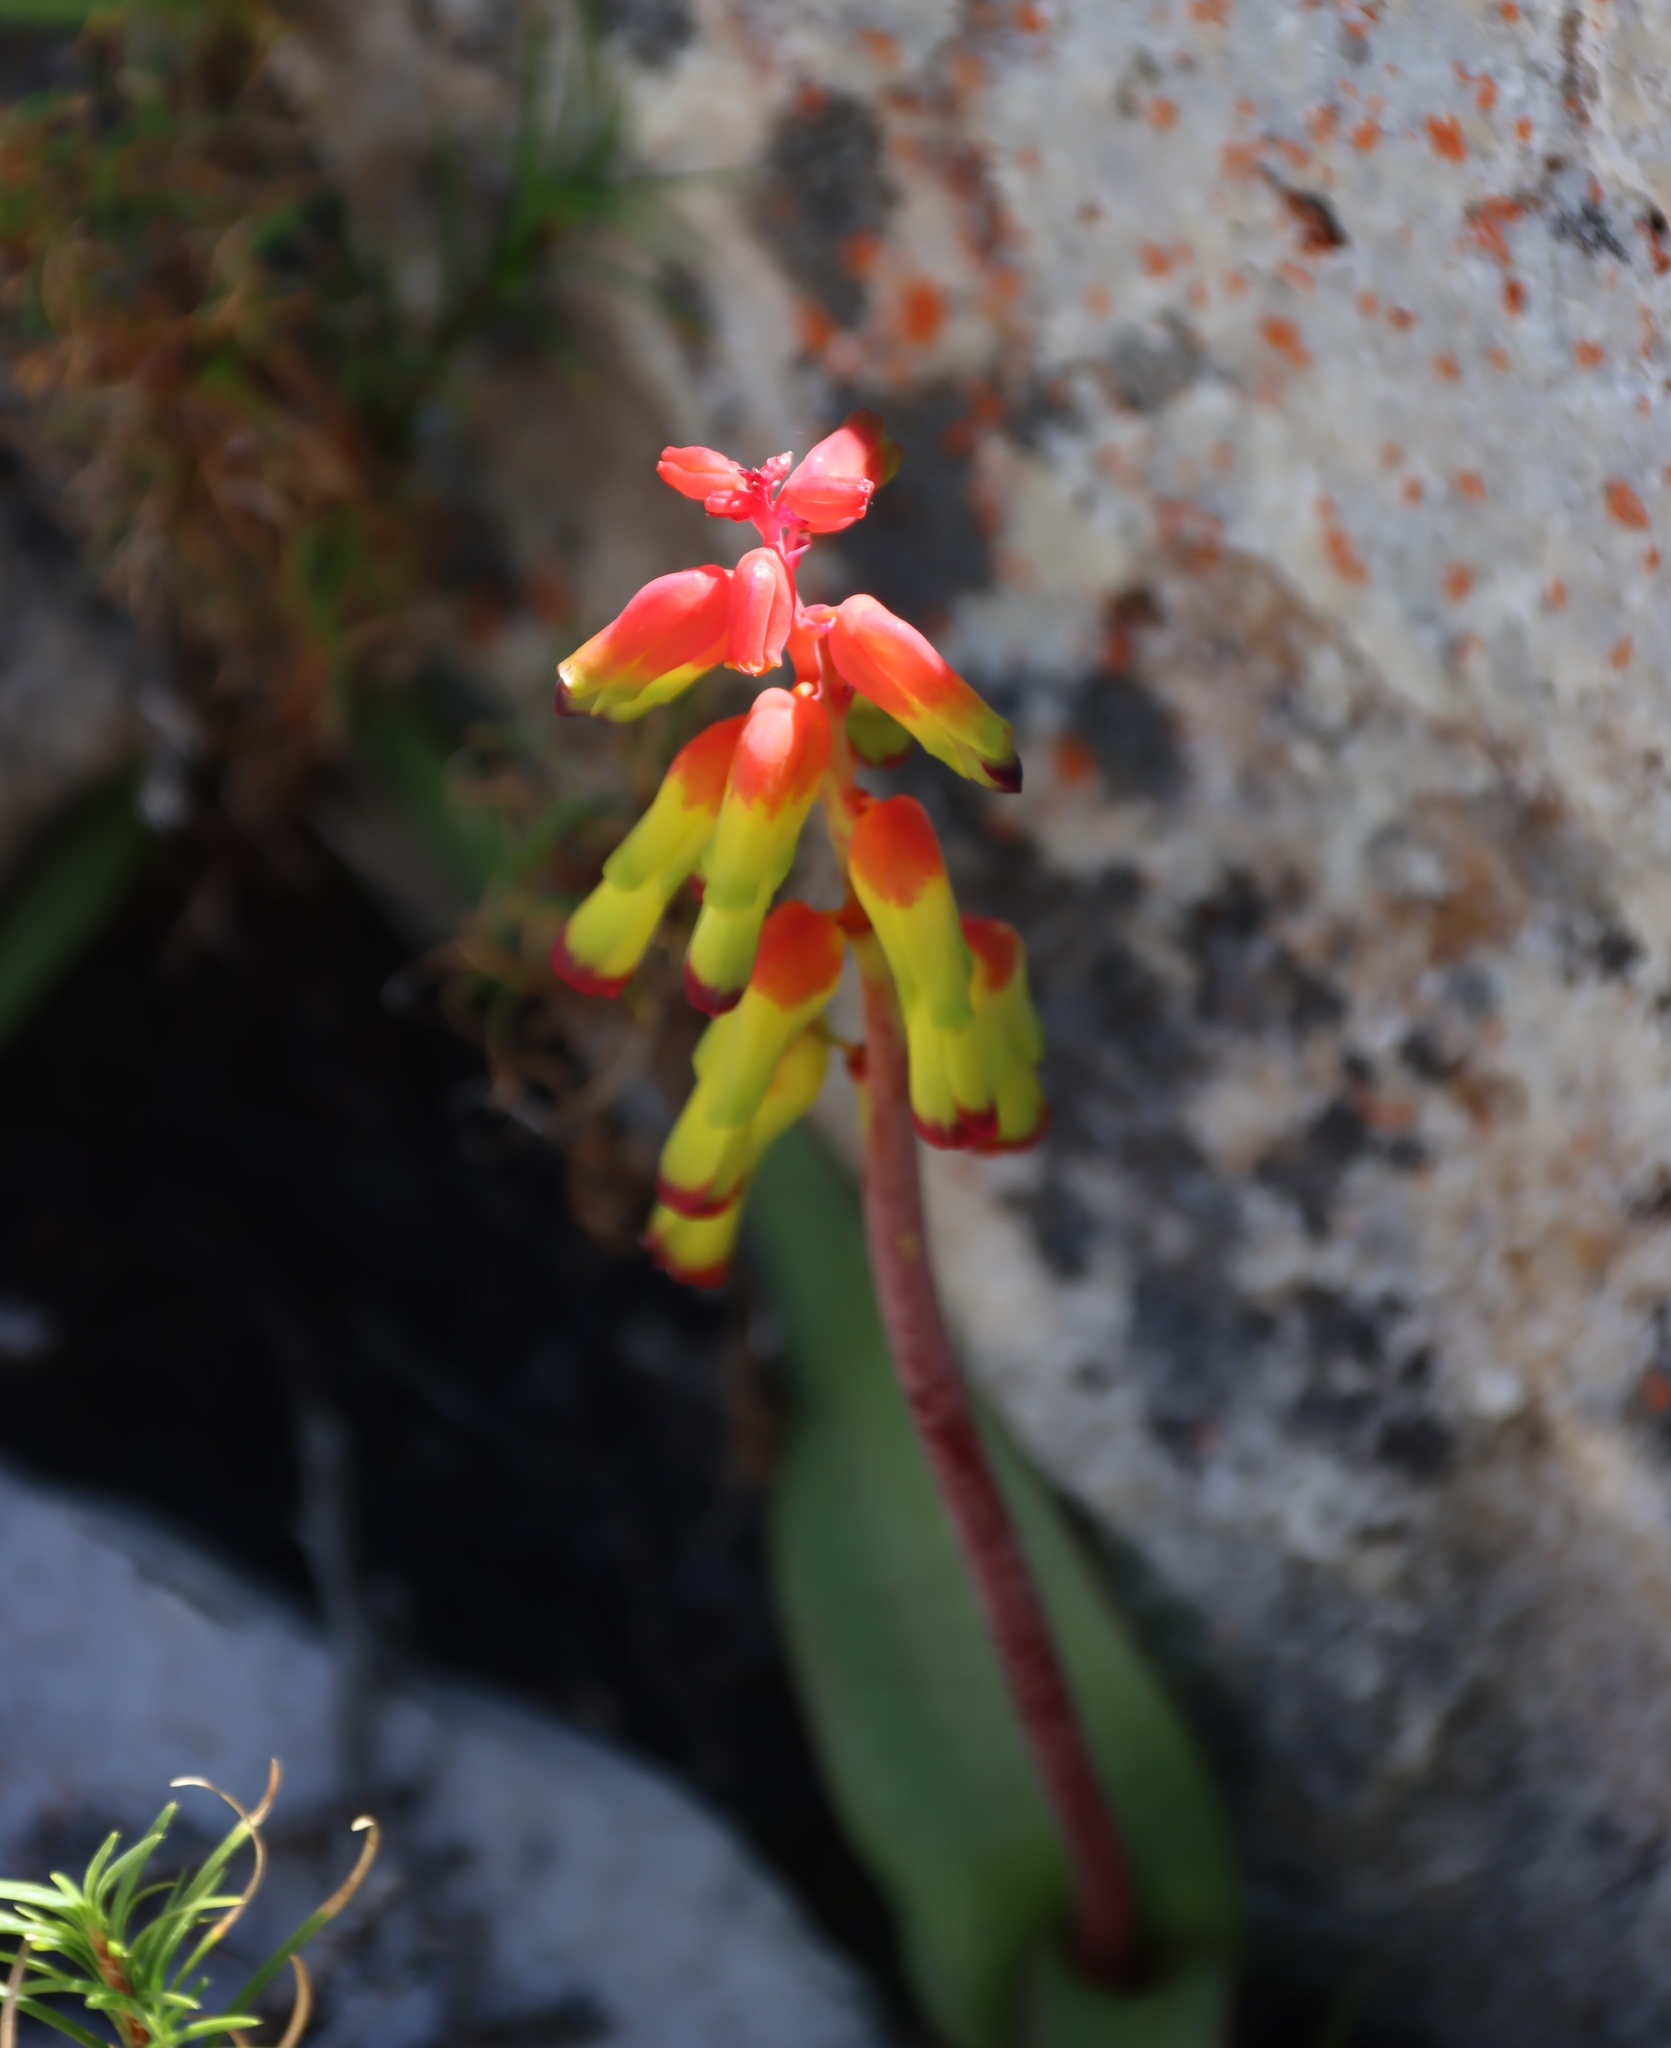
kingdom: Plantae
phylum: Tracheophyta
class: Liliopsida
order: Asparagales
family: Asparagaceae
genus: Lachenalia
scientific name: Lachenalia luteola
